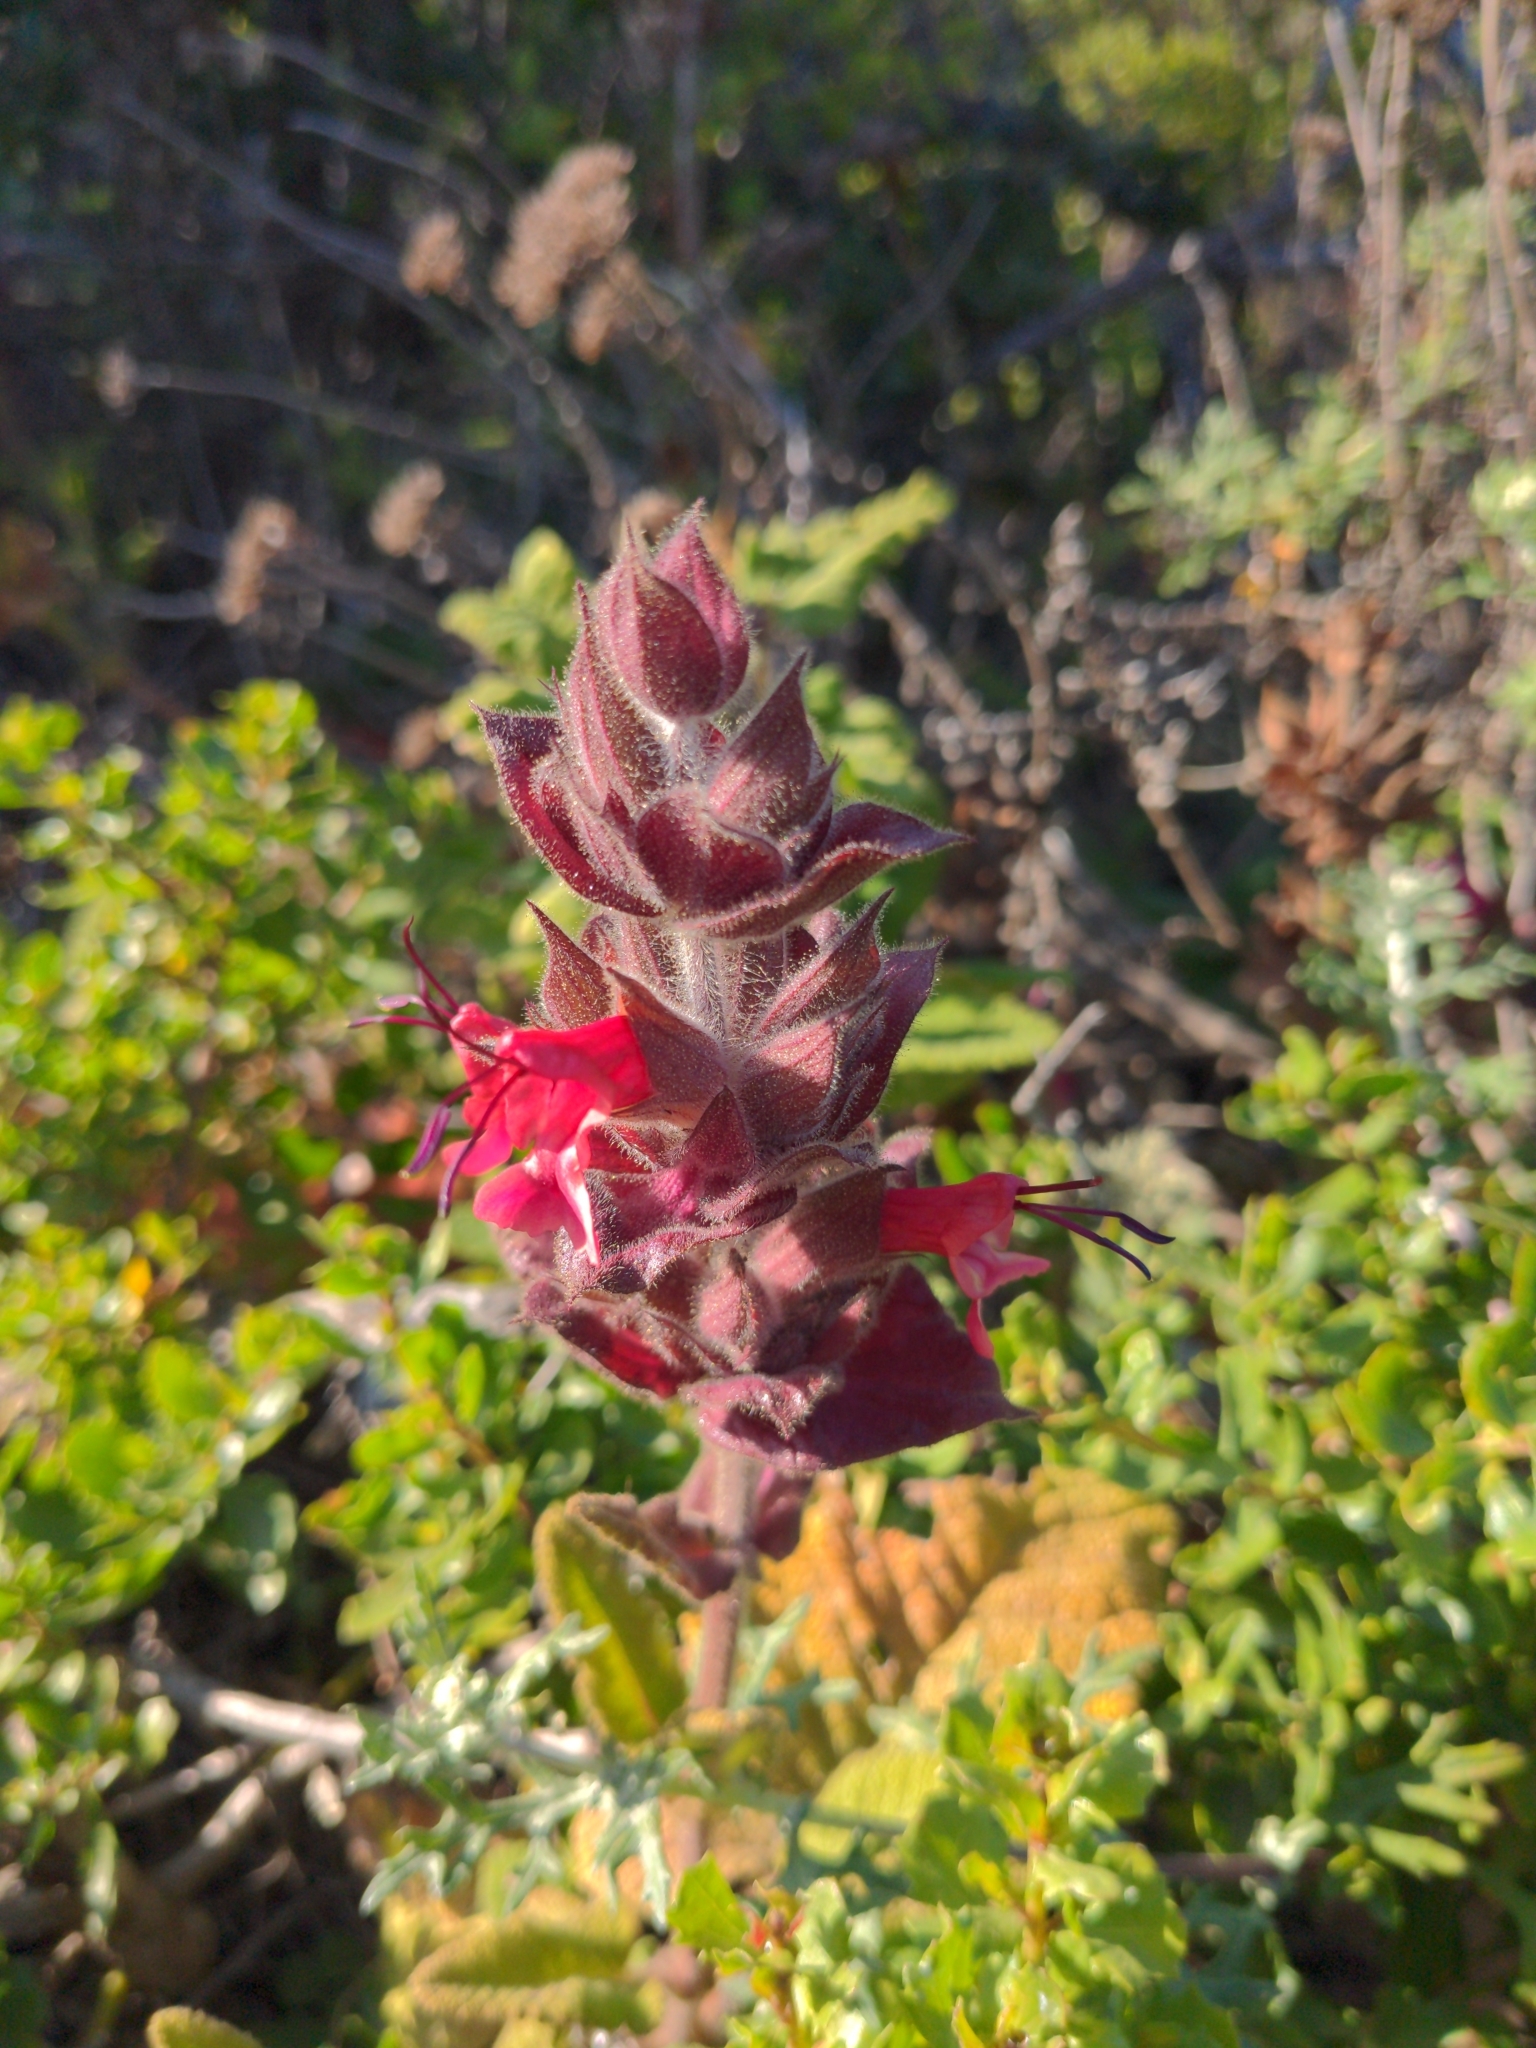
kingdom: Plantae
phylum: Tracheophyta
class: Magnoliopsida
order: Lamiales
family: Lamiaceae
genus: Salvia
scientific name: Salvia spathacea
